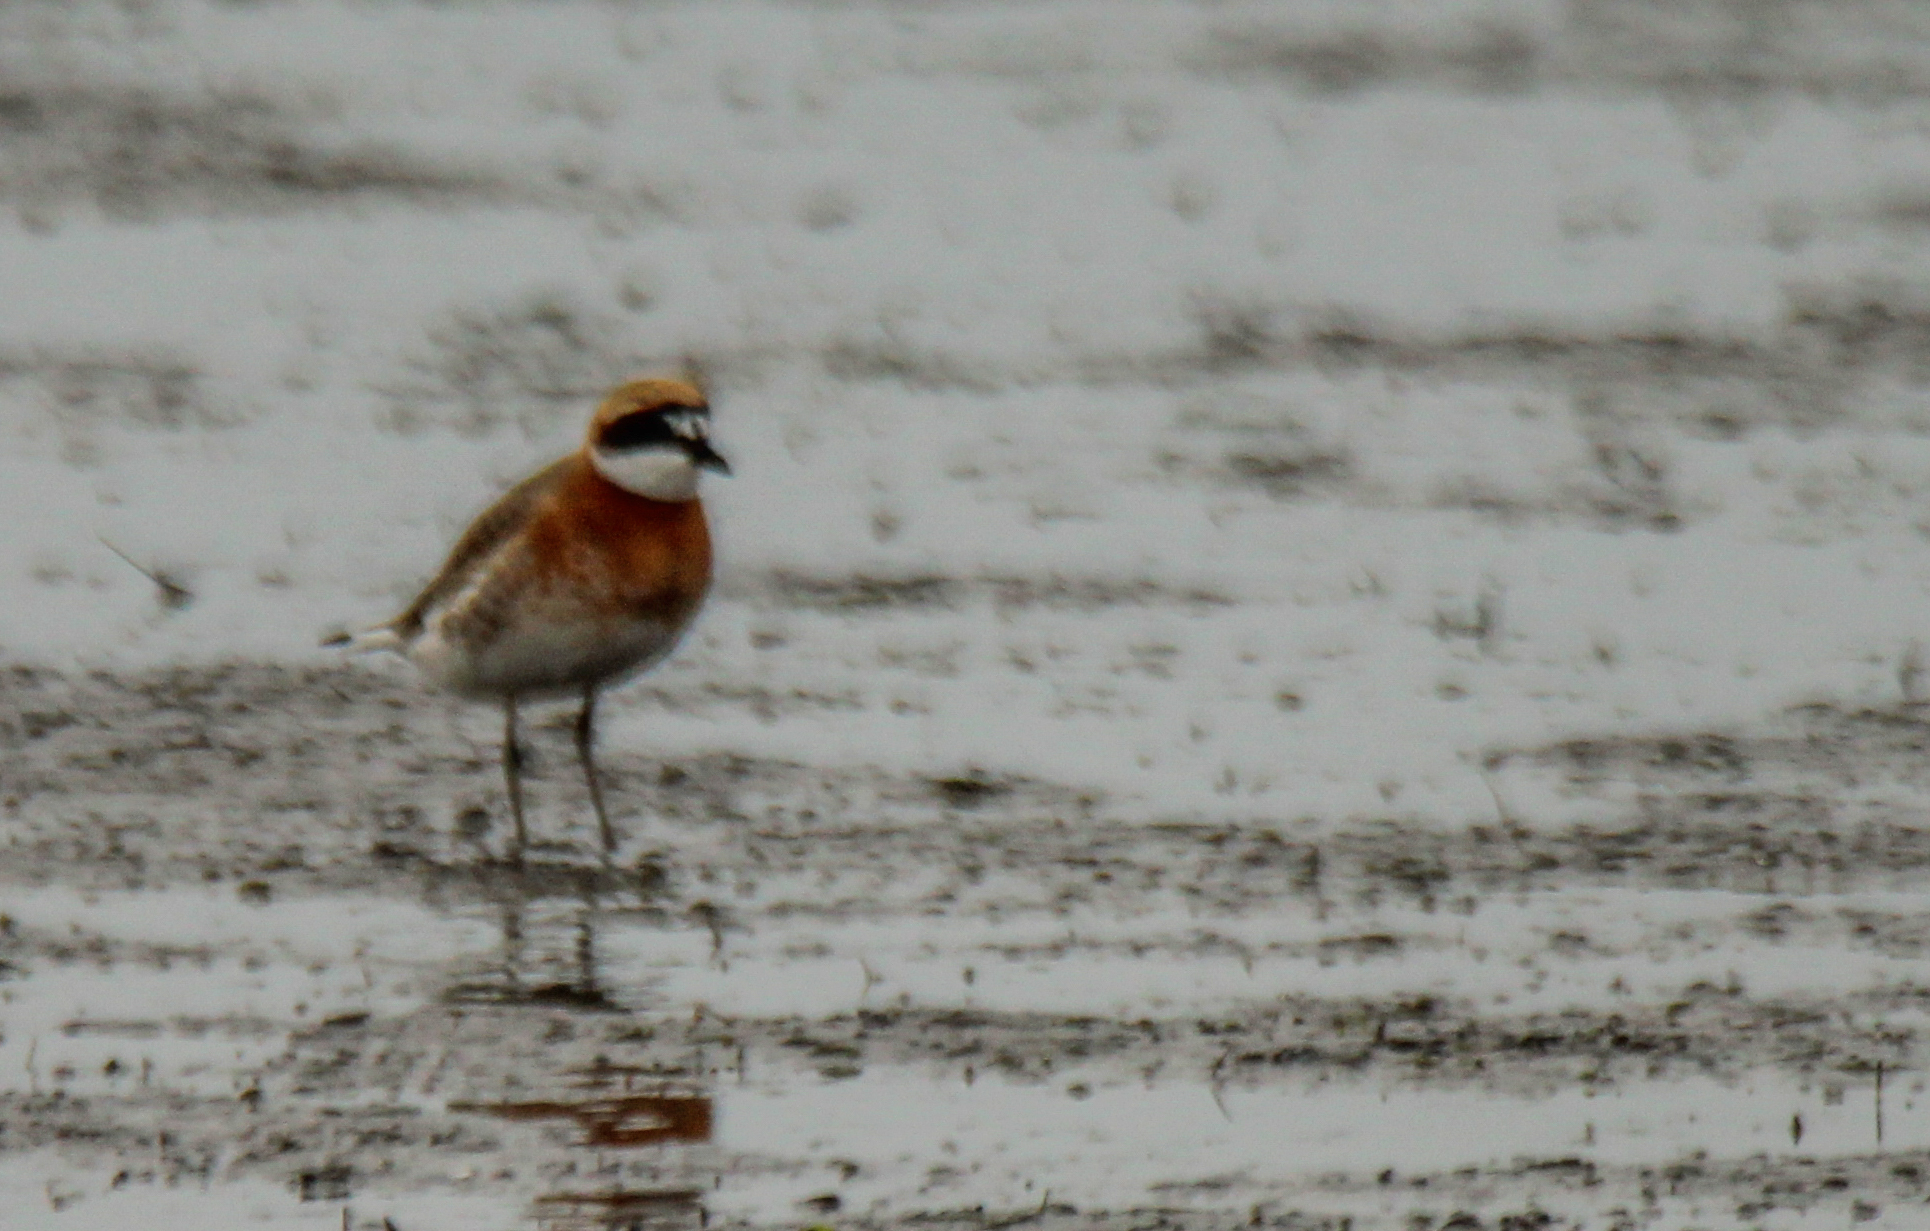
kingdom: Animalia
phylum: Chordata
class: Aves
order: Charadriiformes
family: Charadriidae
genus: Anarhynchus
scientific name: Anarhynchus
